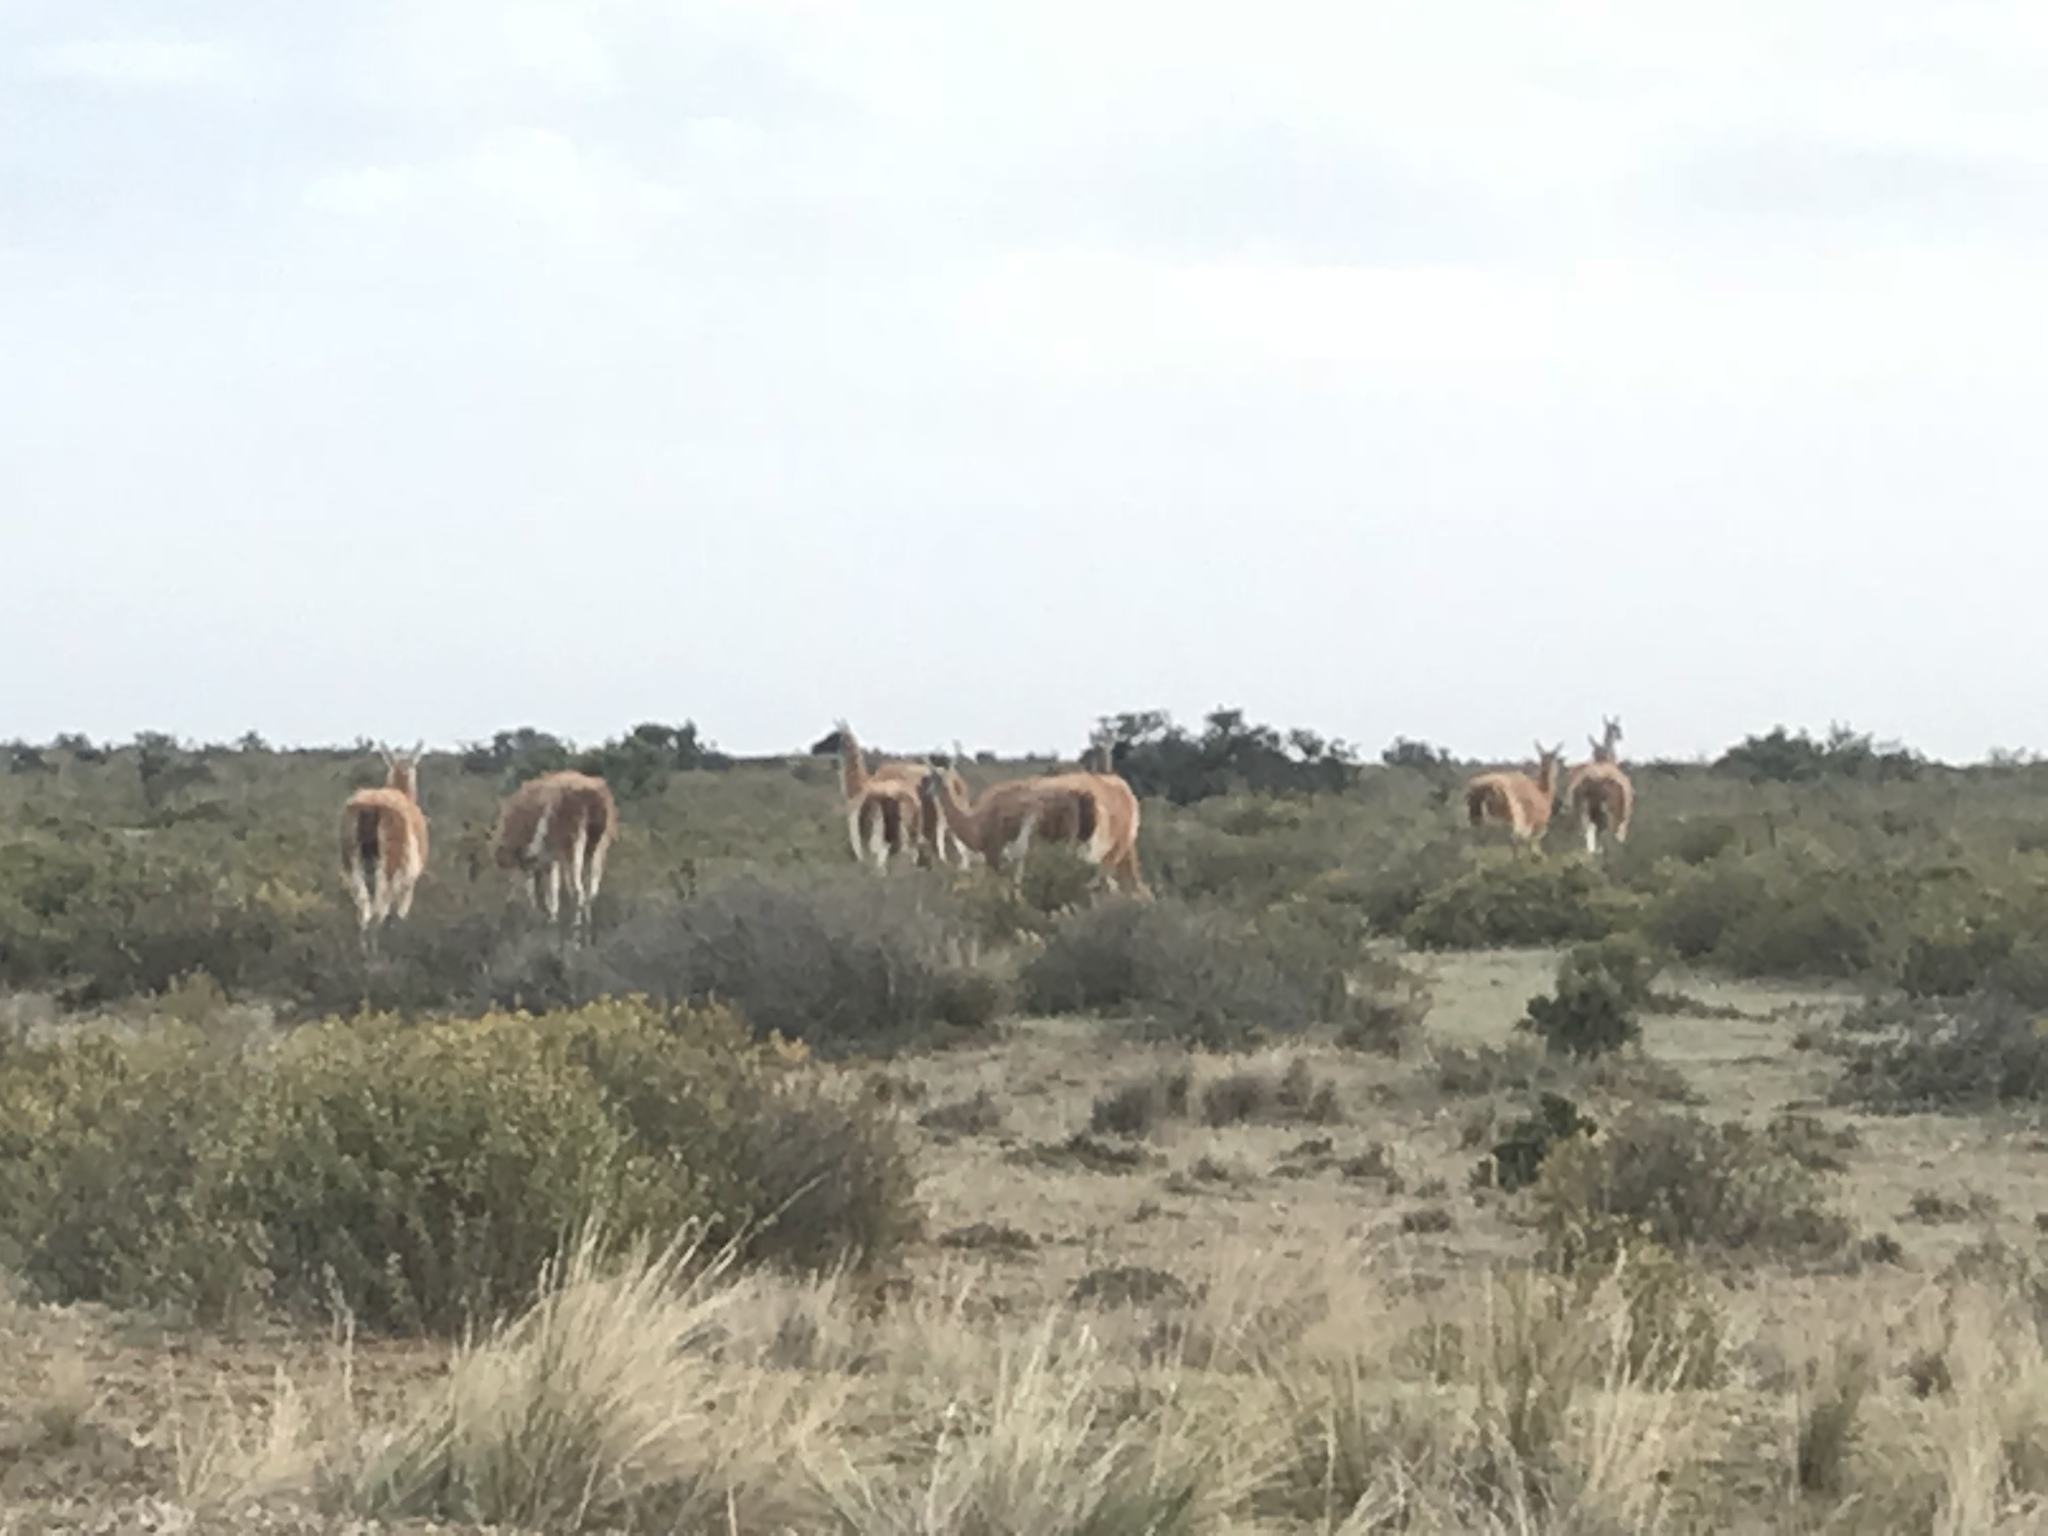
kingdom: Animalia
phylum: Chordata
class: Mammalia
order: Artiodactyla
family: Camelidae
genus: Lama
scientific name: Lama glama
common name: Llama
